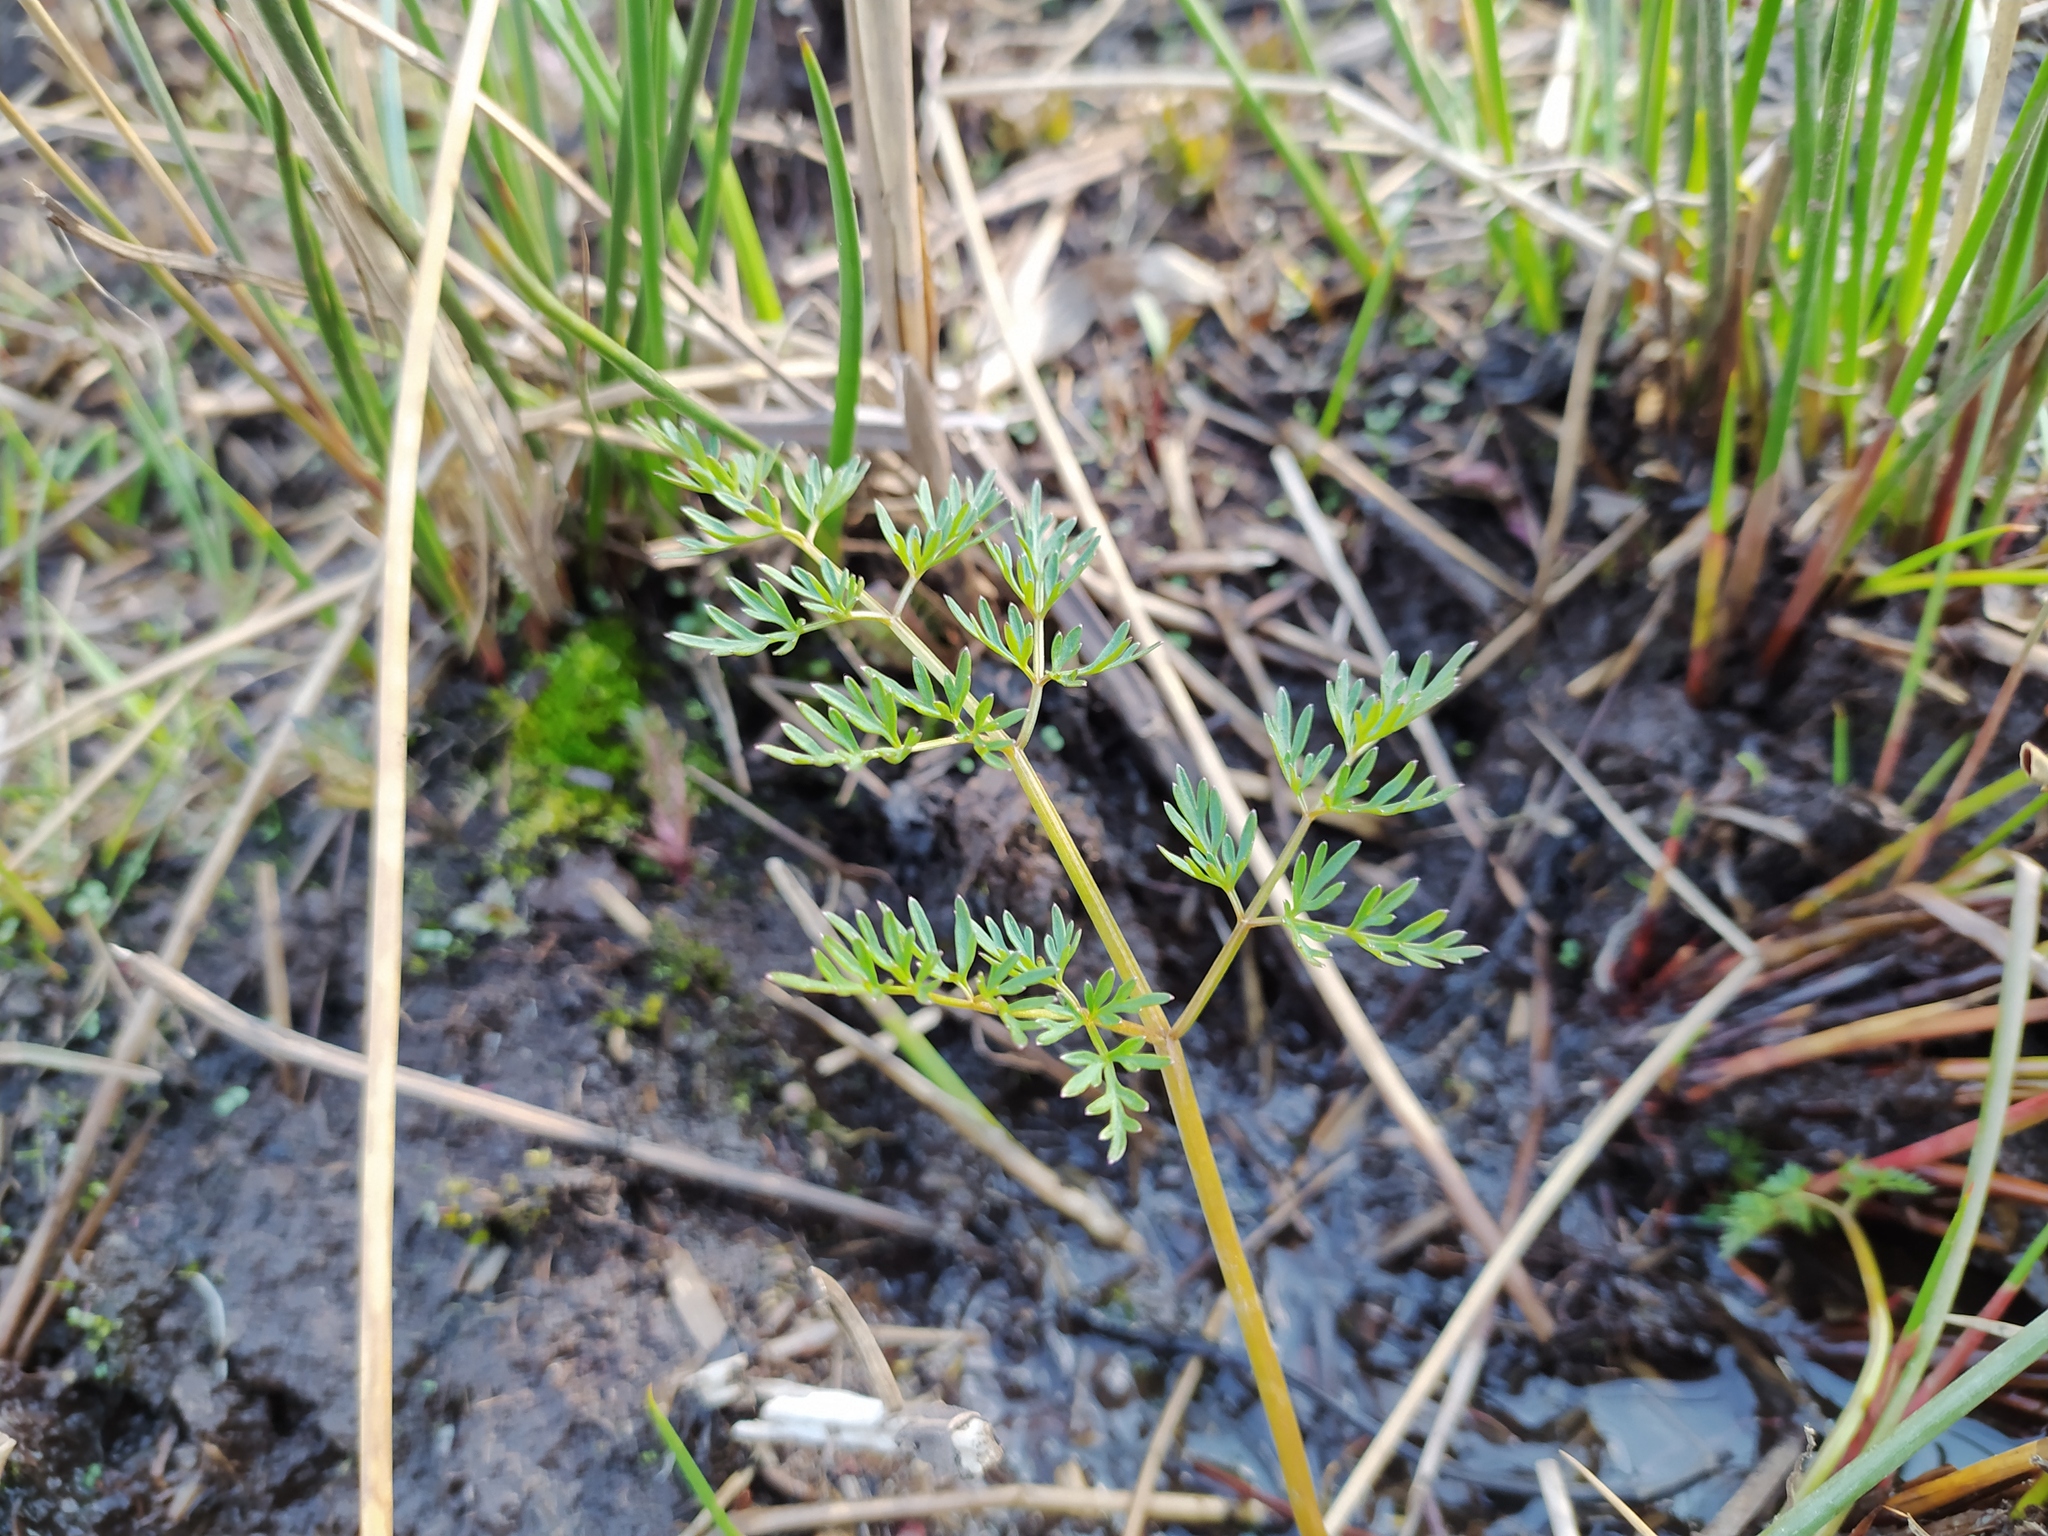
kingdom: Plantae
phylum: Tracheophyta
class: Magnoliopsida
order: Apiales
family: Apiaceae
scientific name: Apiaceae
